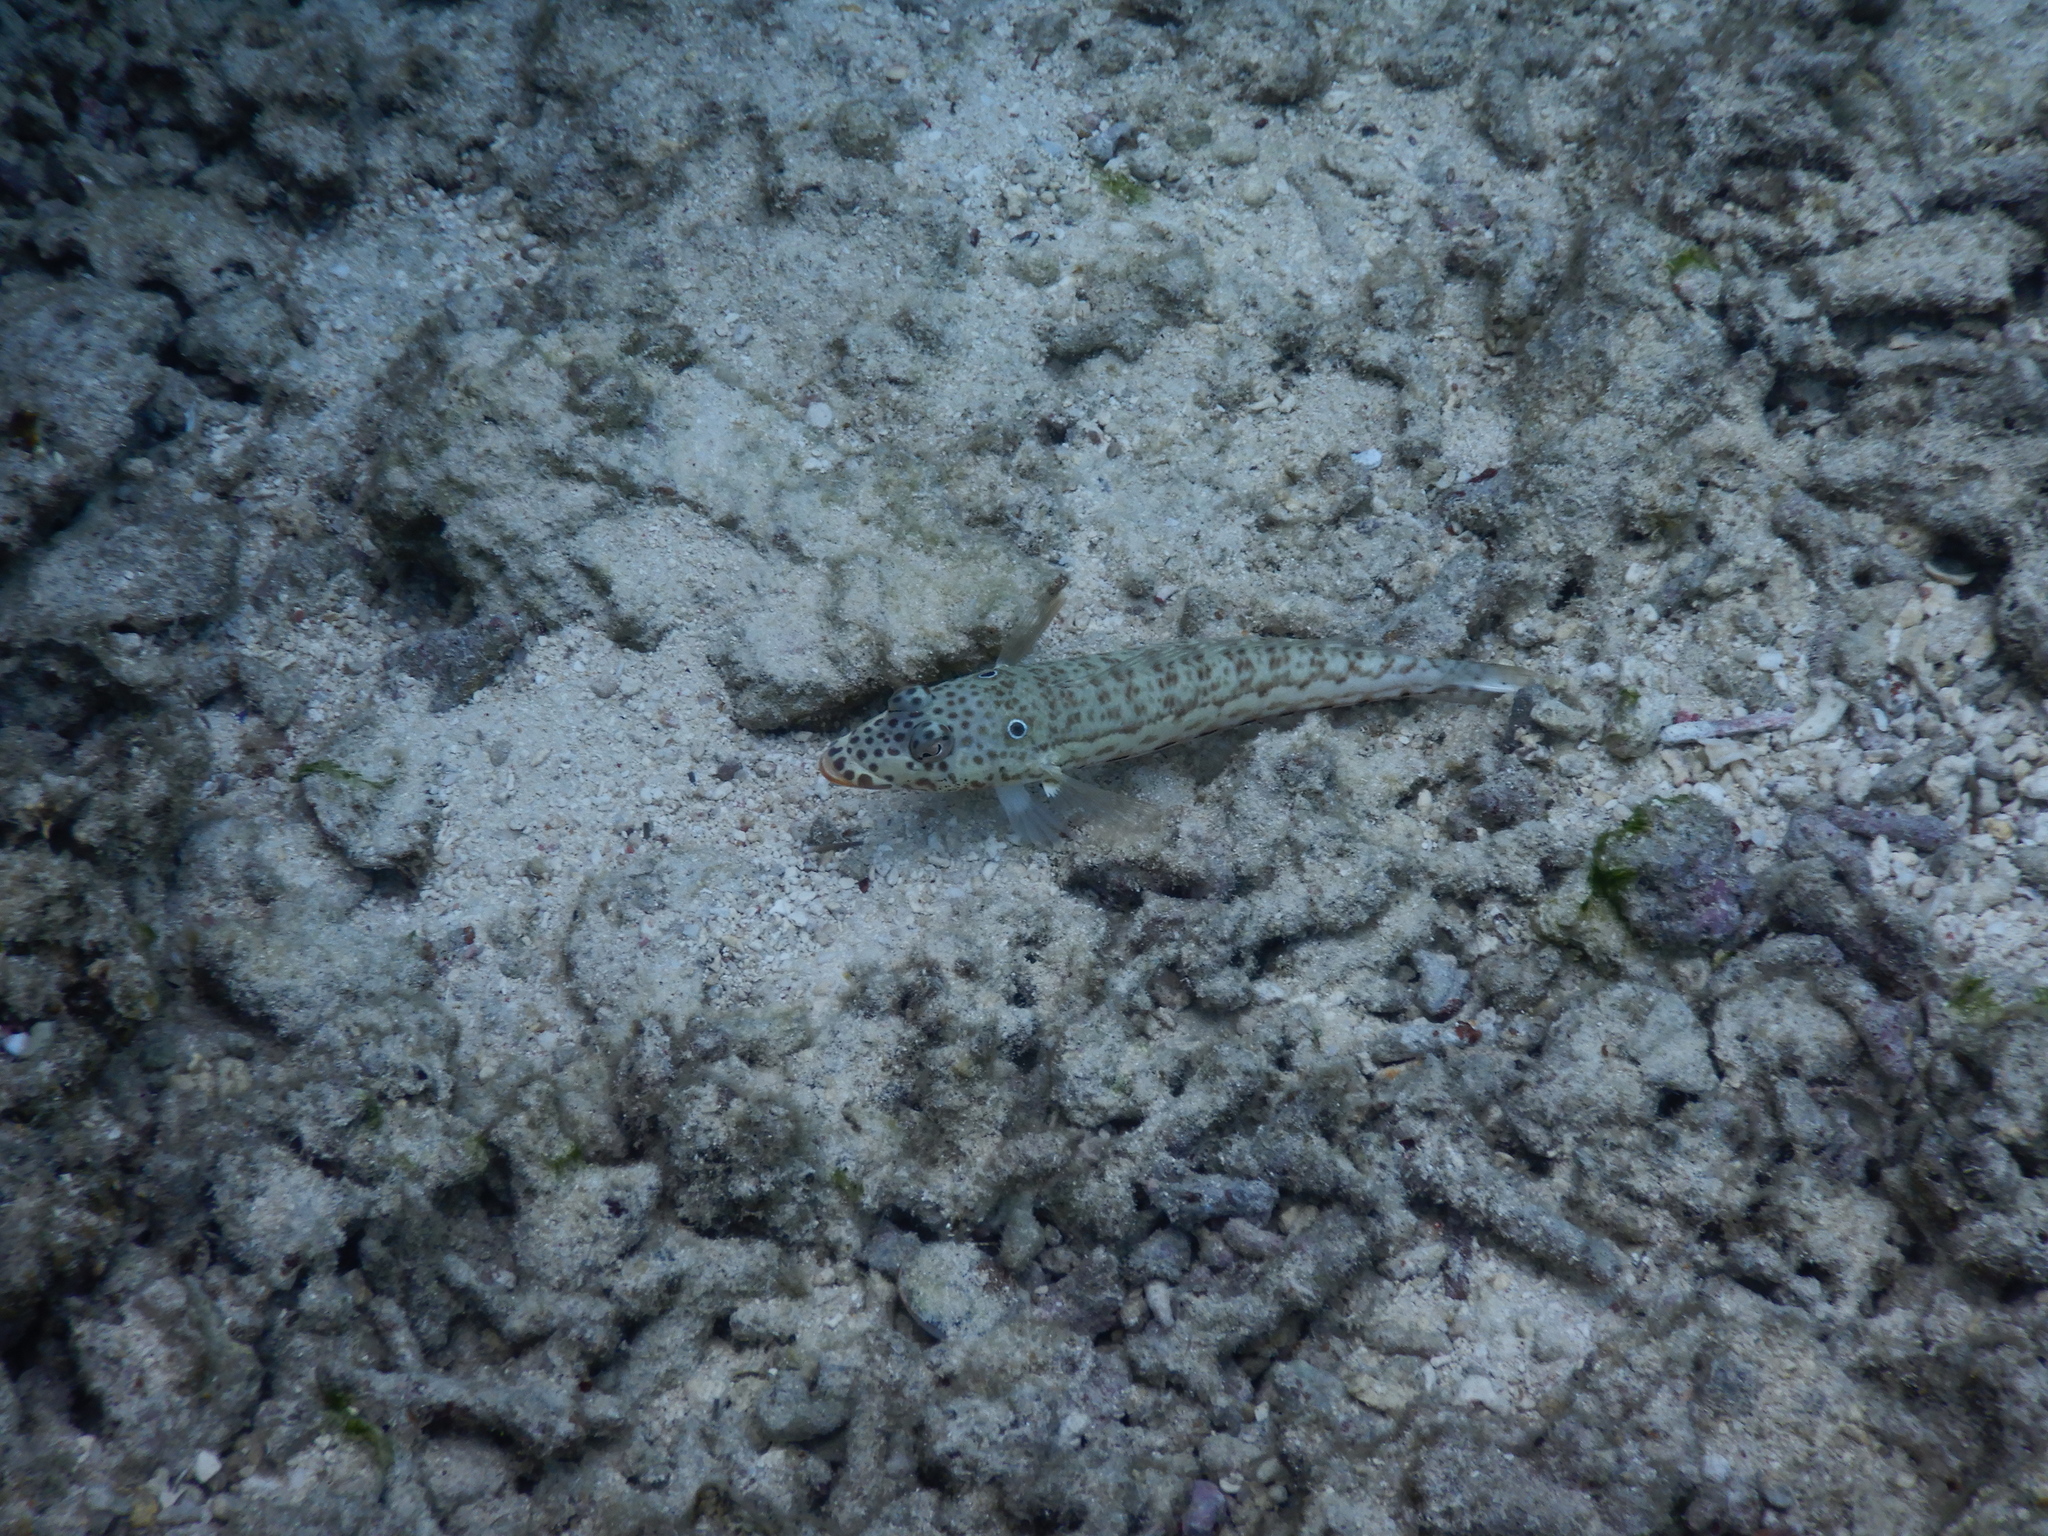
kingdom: Animalia
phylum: Chordata
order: Perciformes
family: Pinguipedidae
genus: Parapercis
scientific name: Parapercis clathrata
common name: Latticed sandperch
